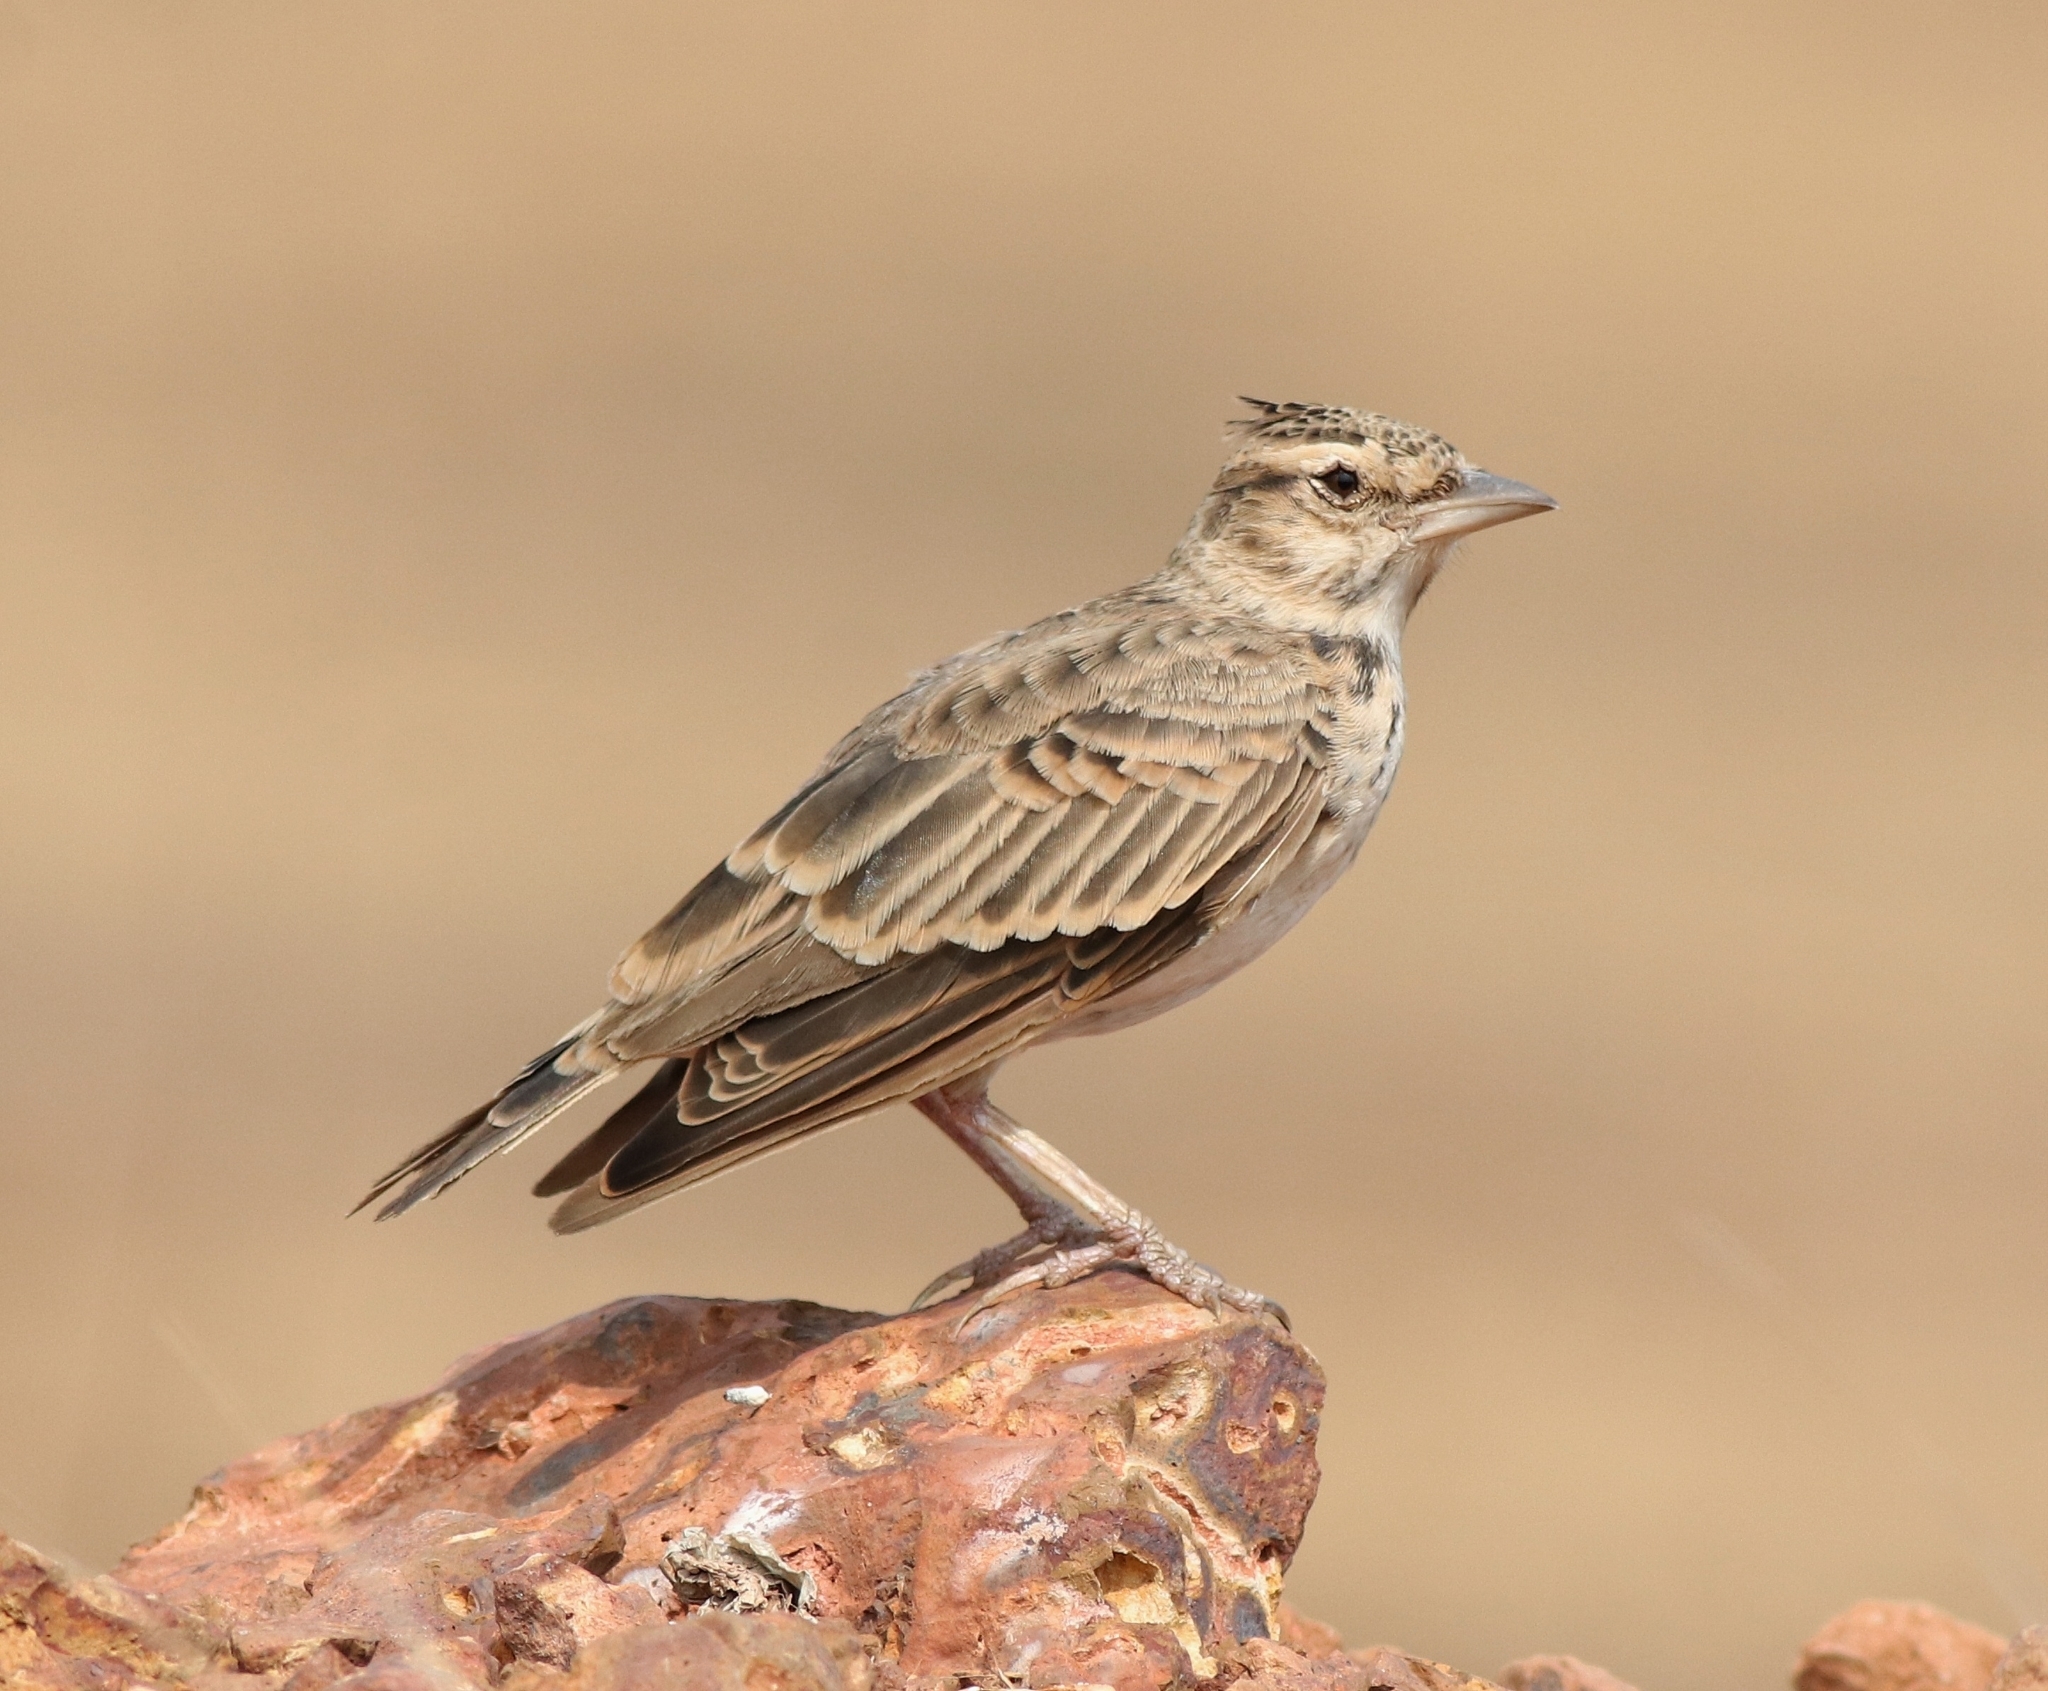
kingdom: Animalia
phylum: Chordata
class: Aves
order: Passeriformes
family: Alaudidae
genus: Galerida
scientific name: Galerida malabarica
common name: Malabar lark
